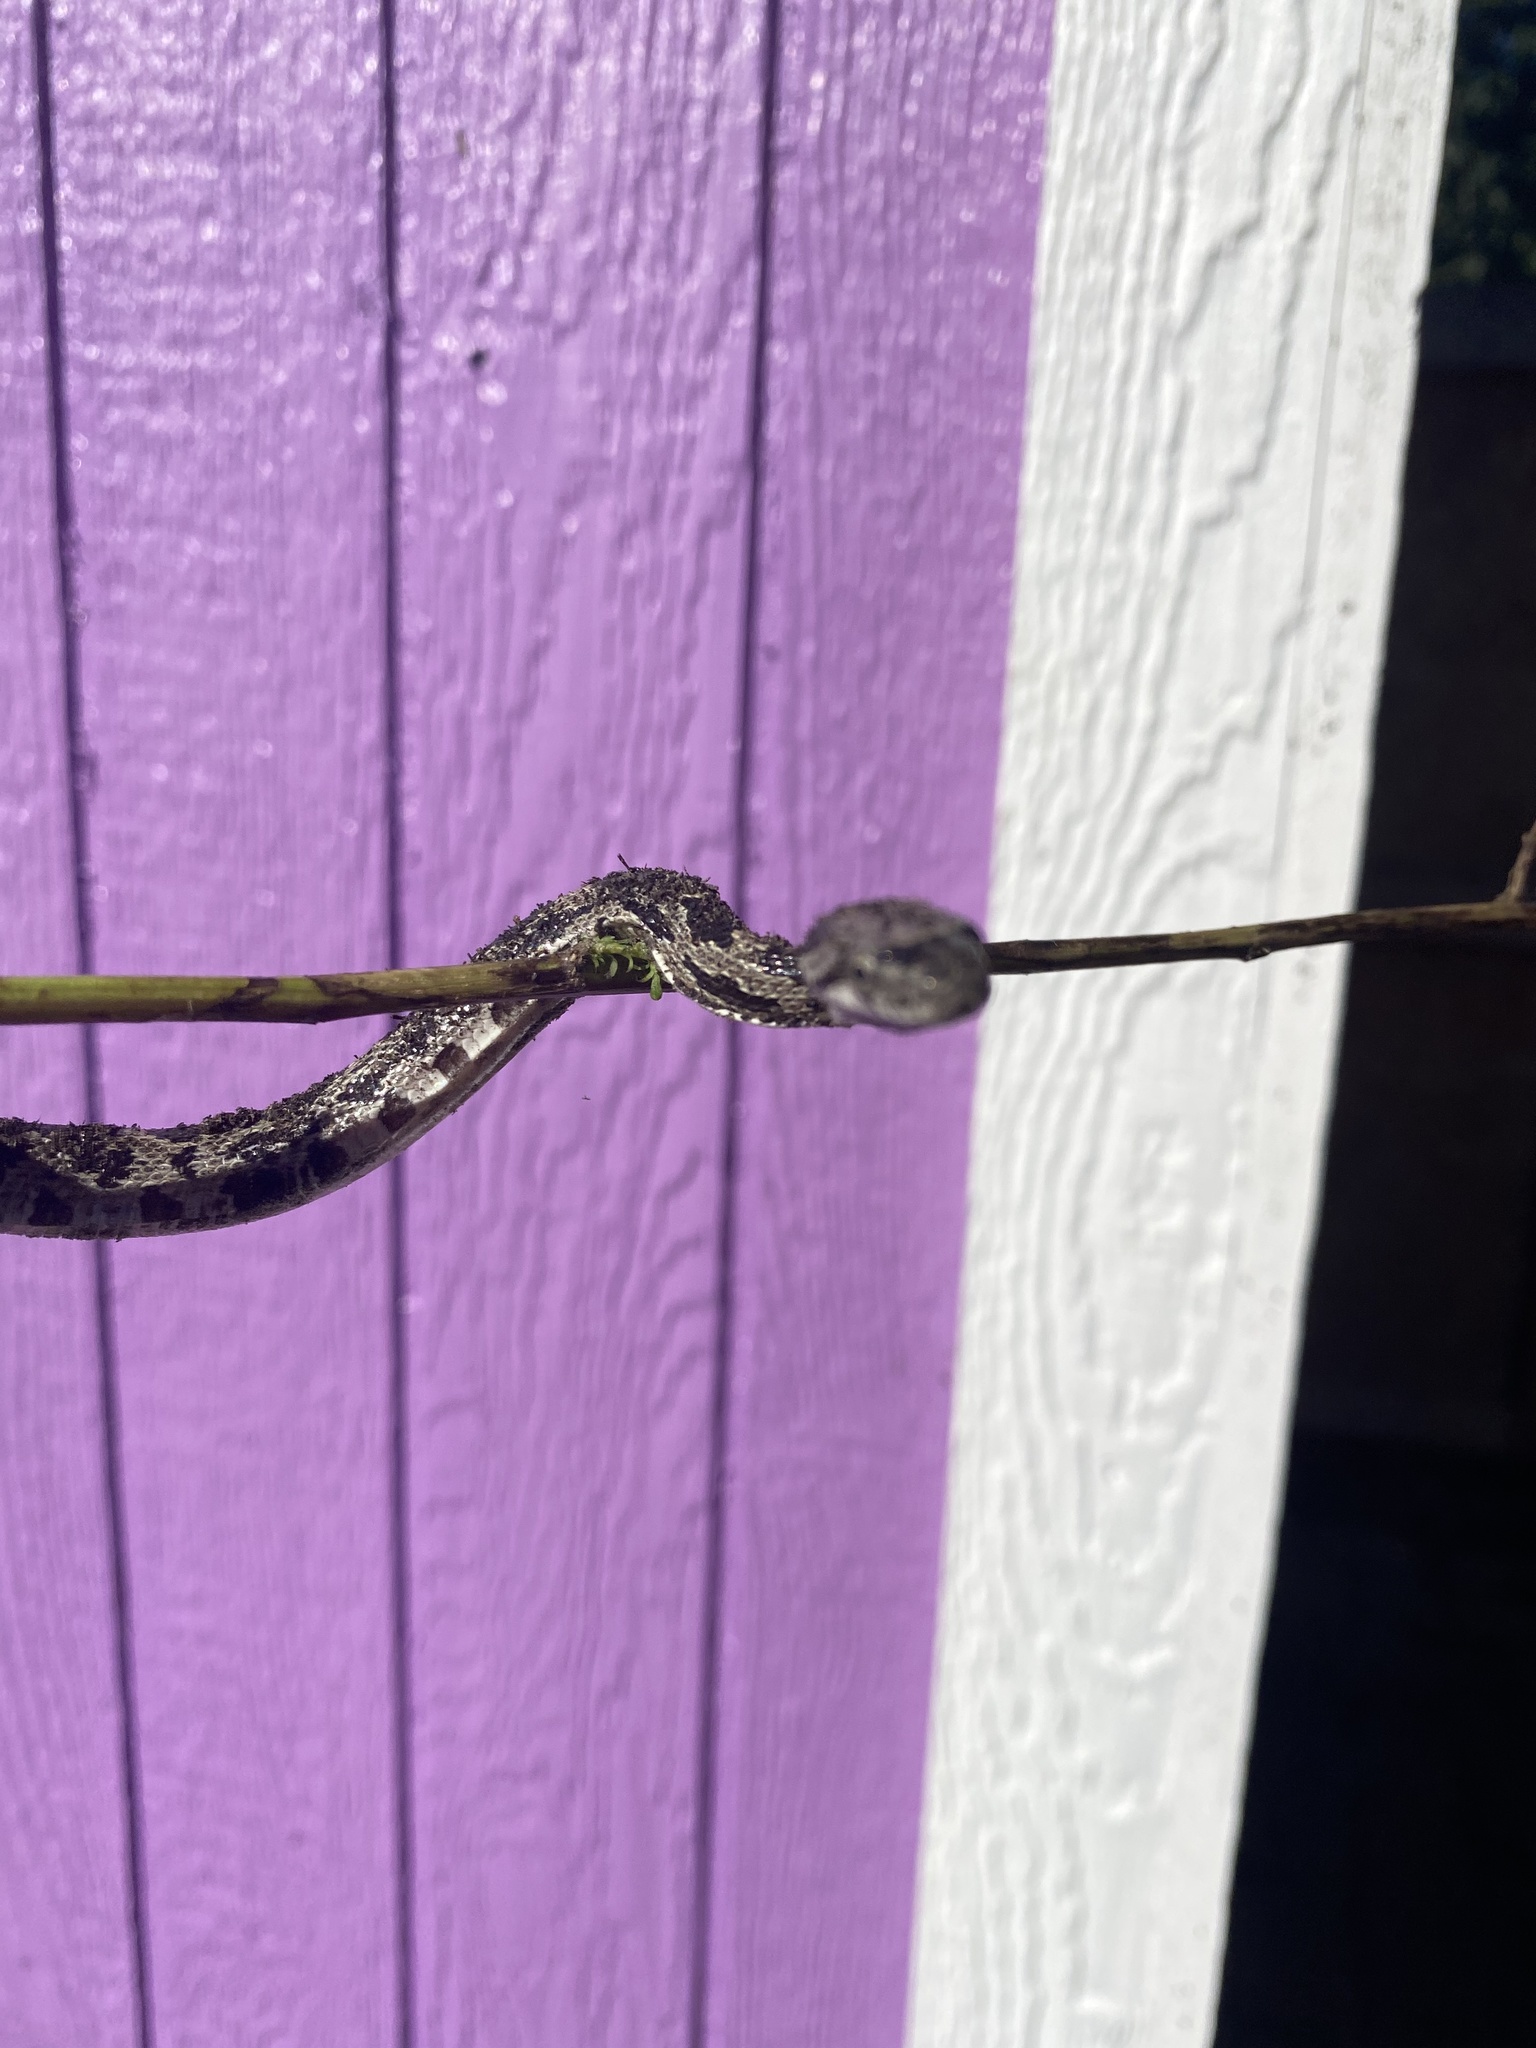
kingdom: Animalia
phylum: Chordata
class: Squamata
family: Colubridae
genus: Pantherophis
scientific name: Pantherophis spiloides
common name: Gray rat snake
